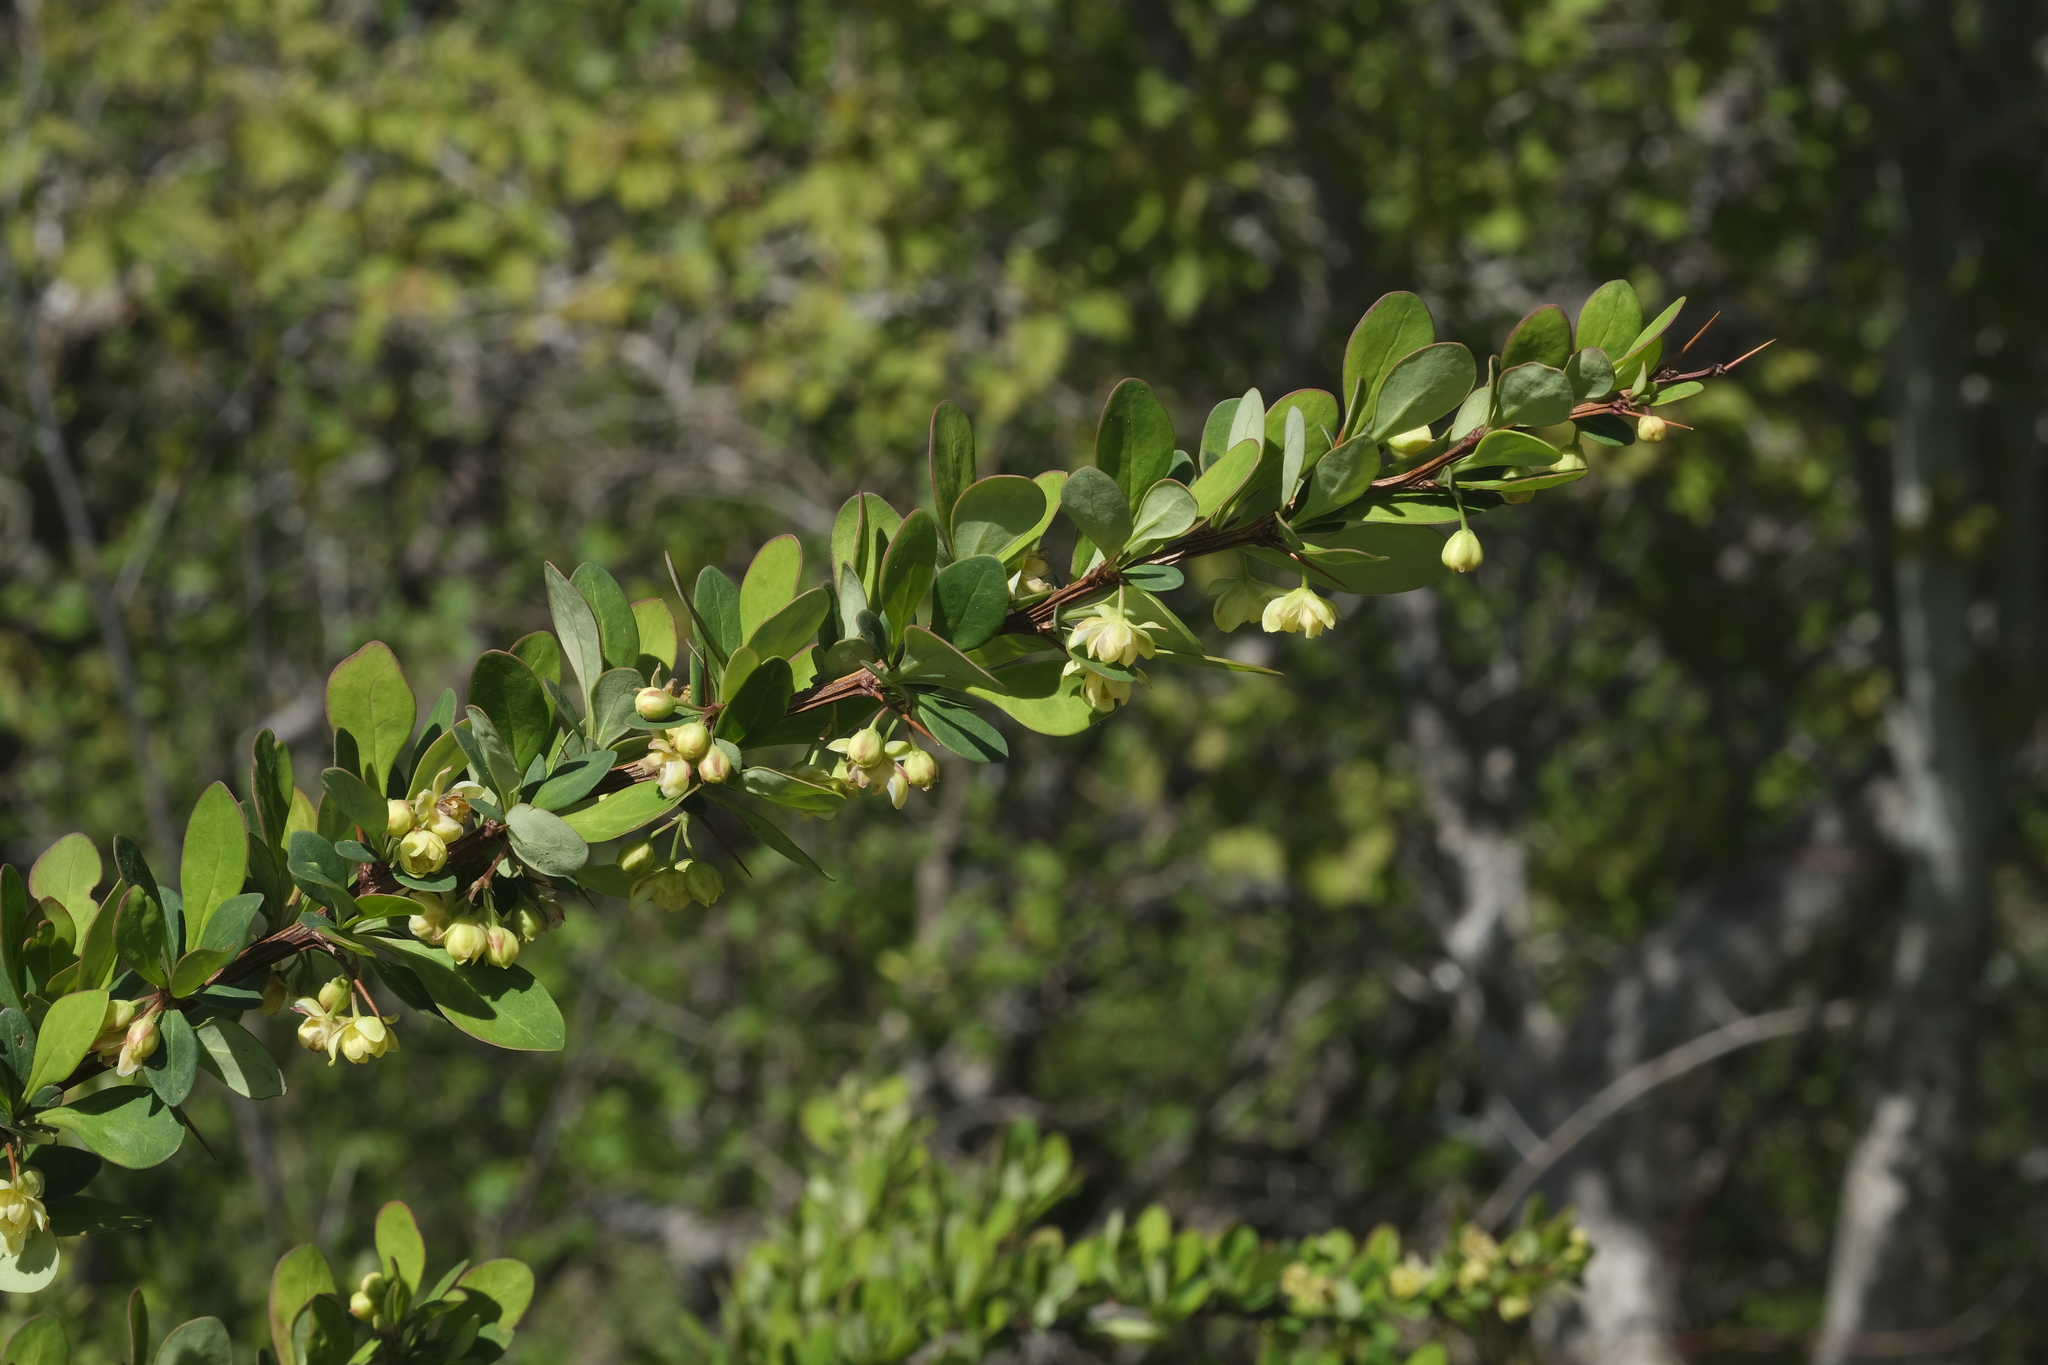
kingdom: Plantae
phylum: Tracheophyta
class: Magnoliopsida
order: Ranunculales
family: Berberidaceae
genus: Berberis
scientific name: Berberis thunbergii
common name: Japanese barberry
